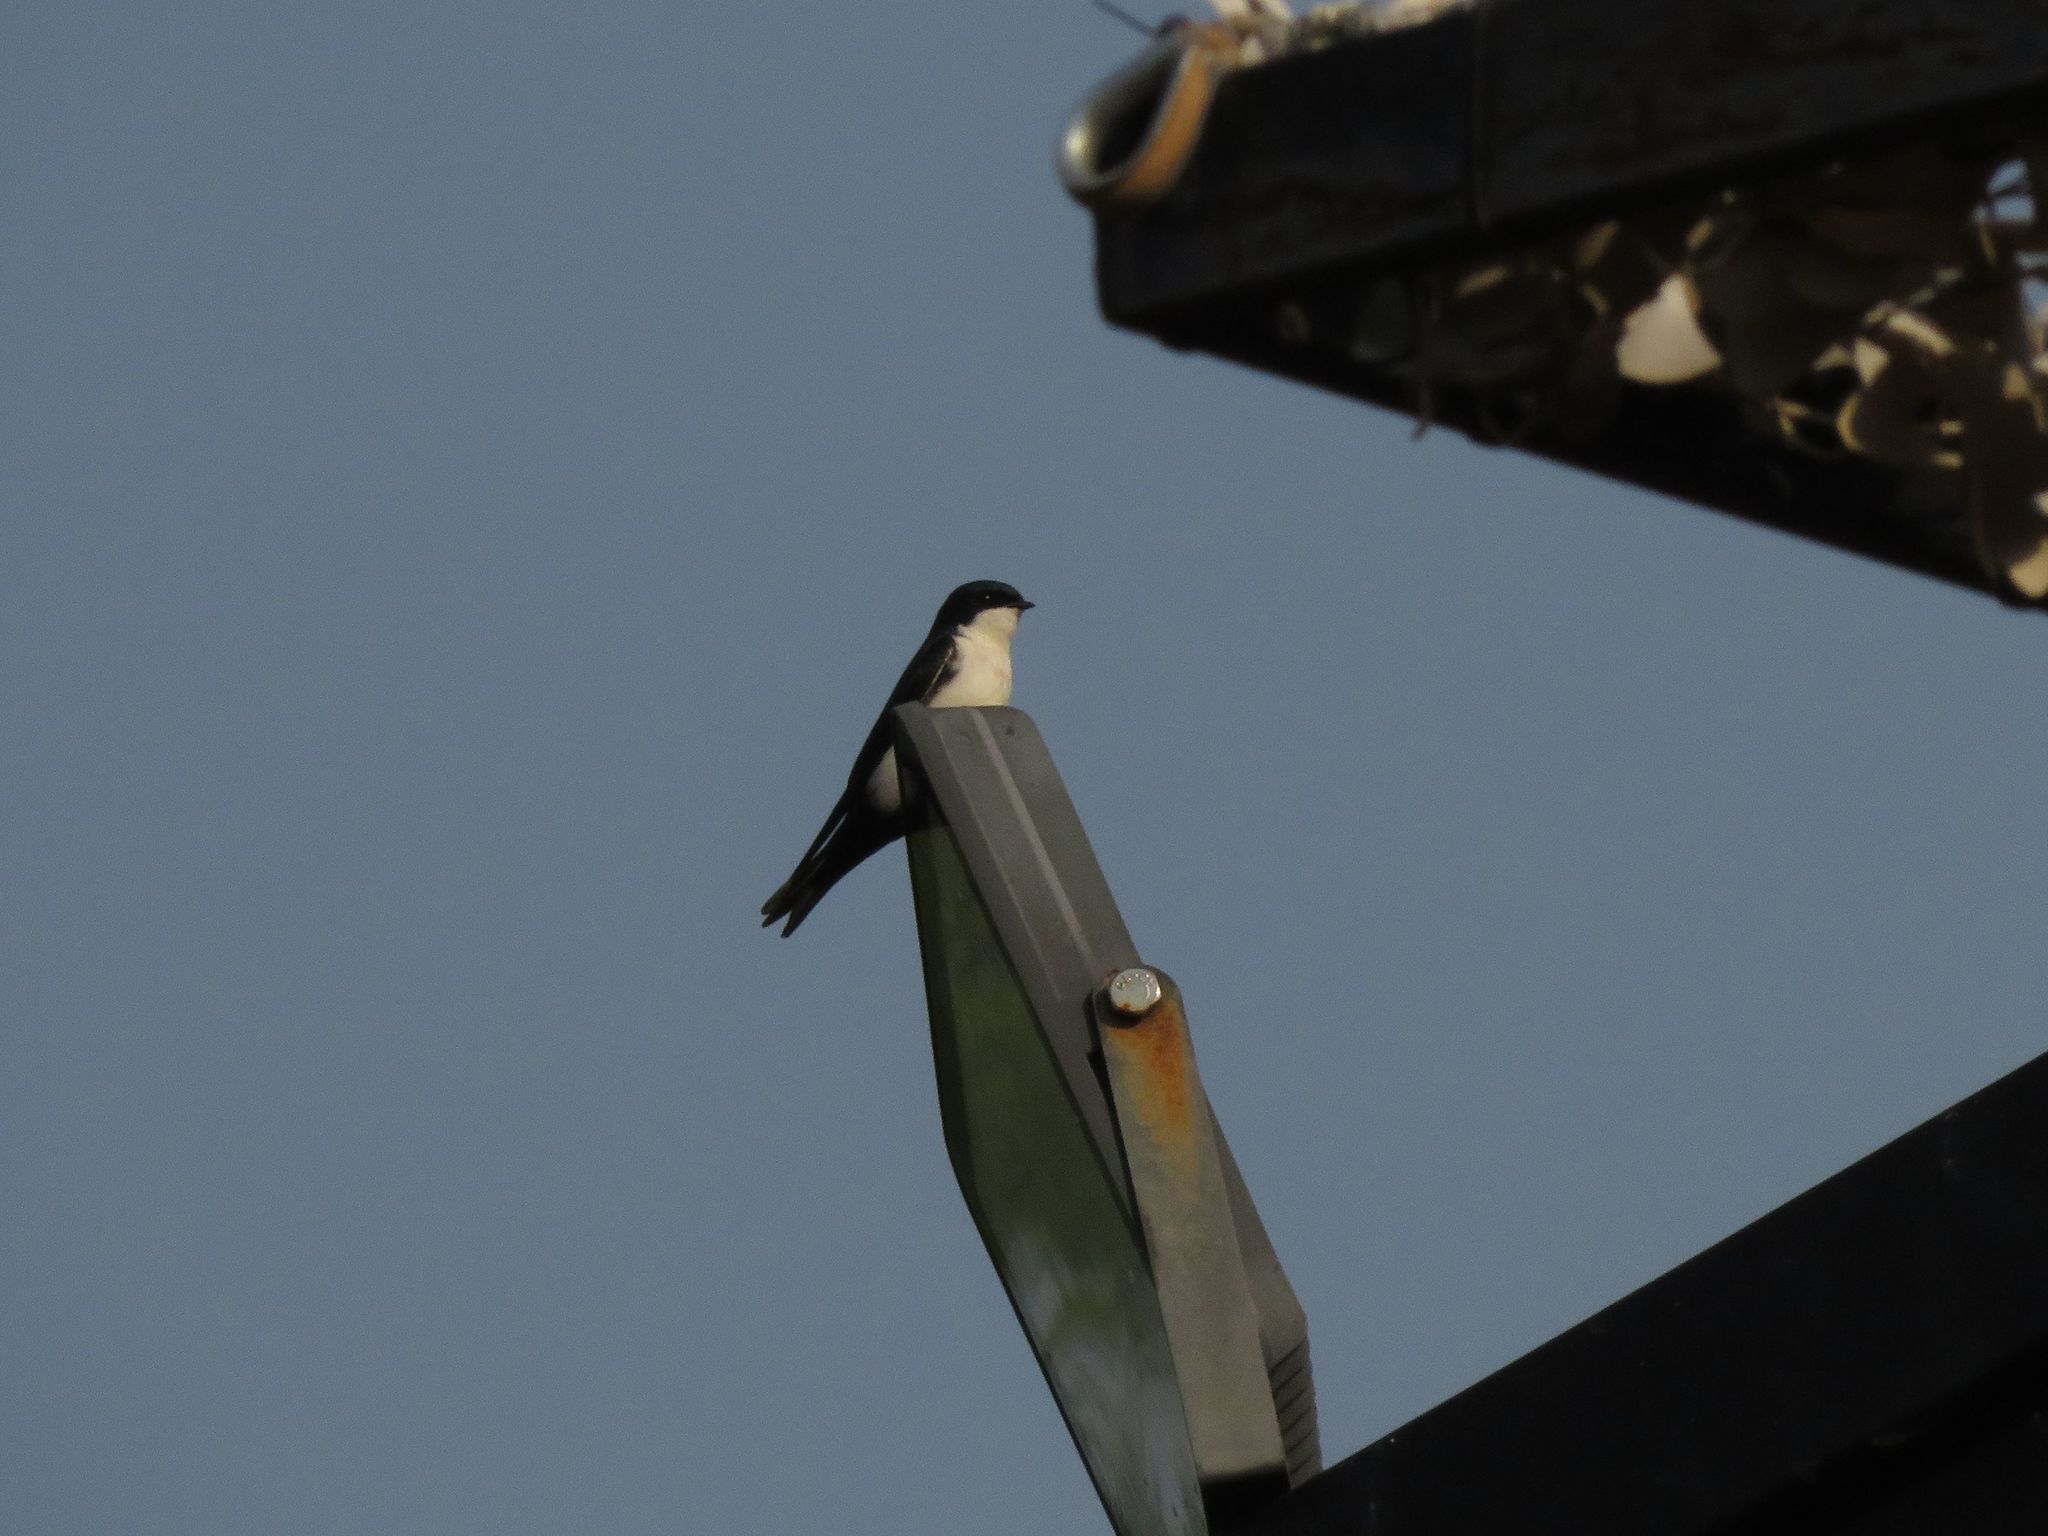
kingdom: Animalia
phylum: Chordata
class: Aves
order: Passeriformes
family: Hirundinidae
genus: Notiochelidon
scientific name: Notiochelidon cyanoleuca
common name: Blue-and-white swallow
